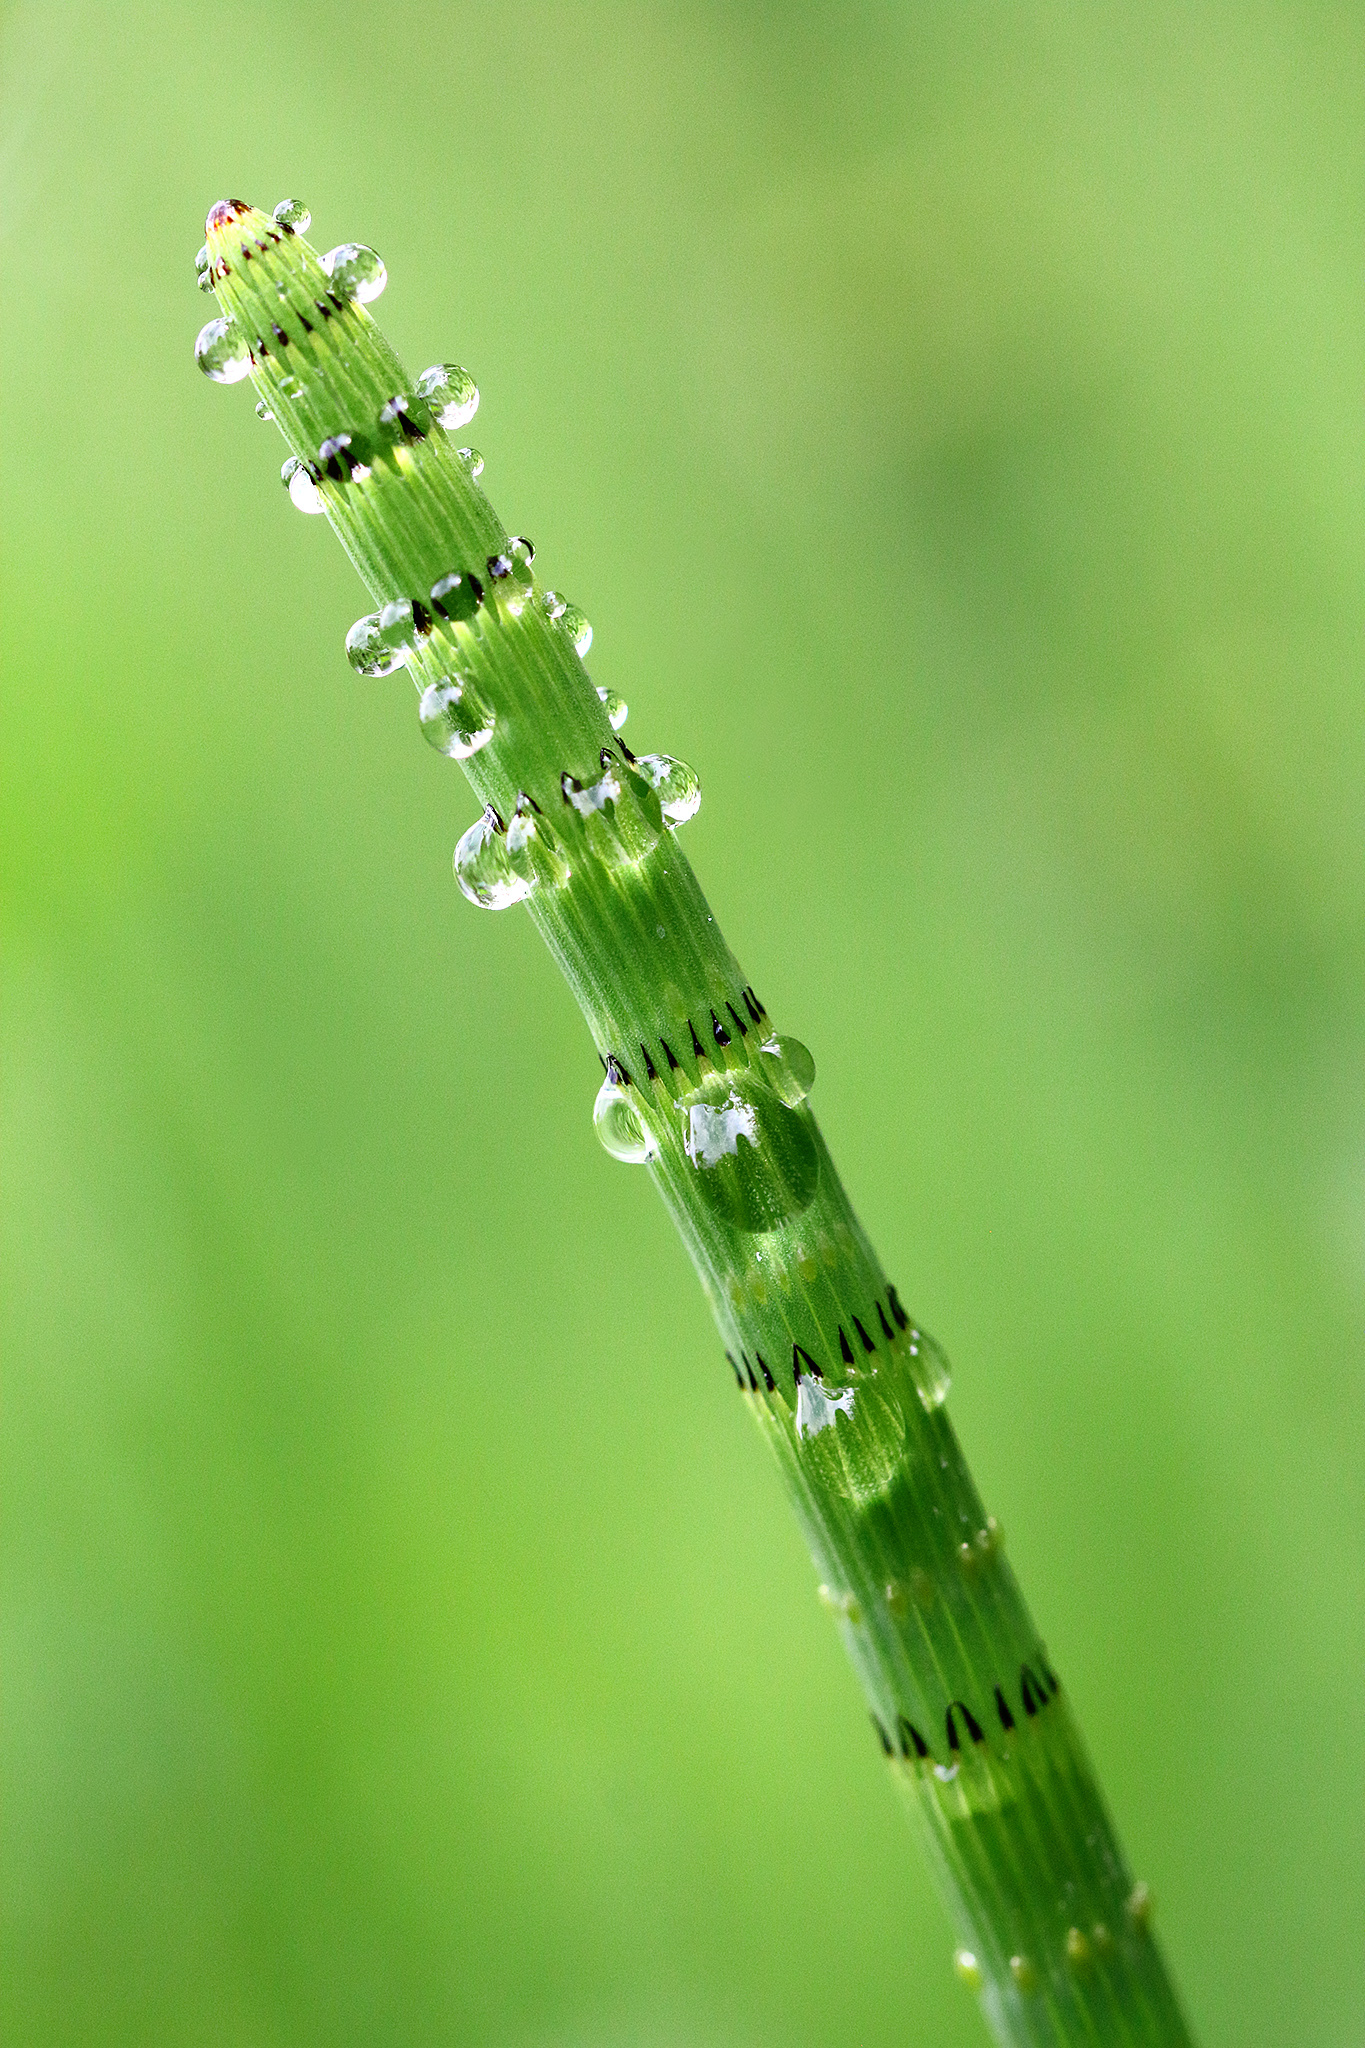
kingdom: Plantae
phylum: Tracheophyta
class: Polypodiopsida
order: Equisetales
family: Equisetaceae
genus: Equisetum
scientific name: Equisetum fluviatile
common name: Water horsetail
